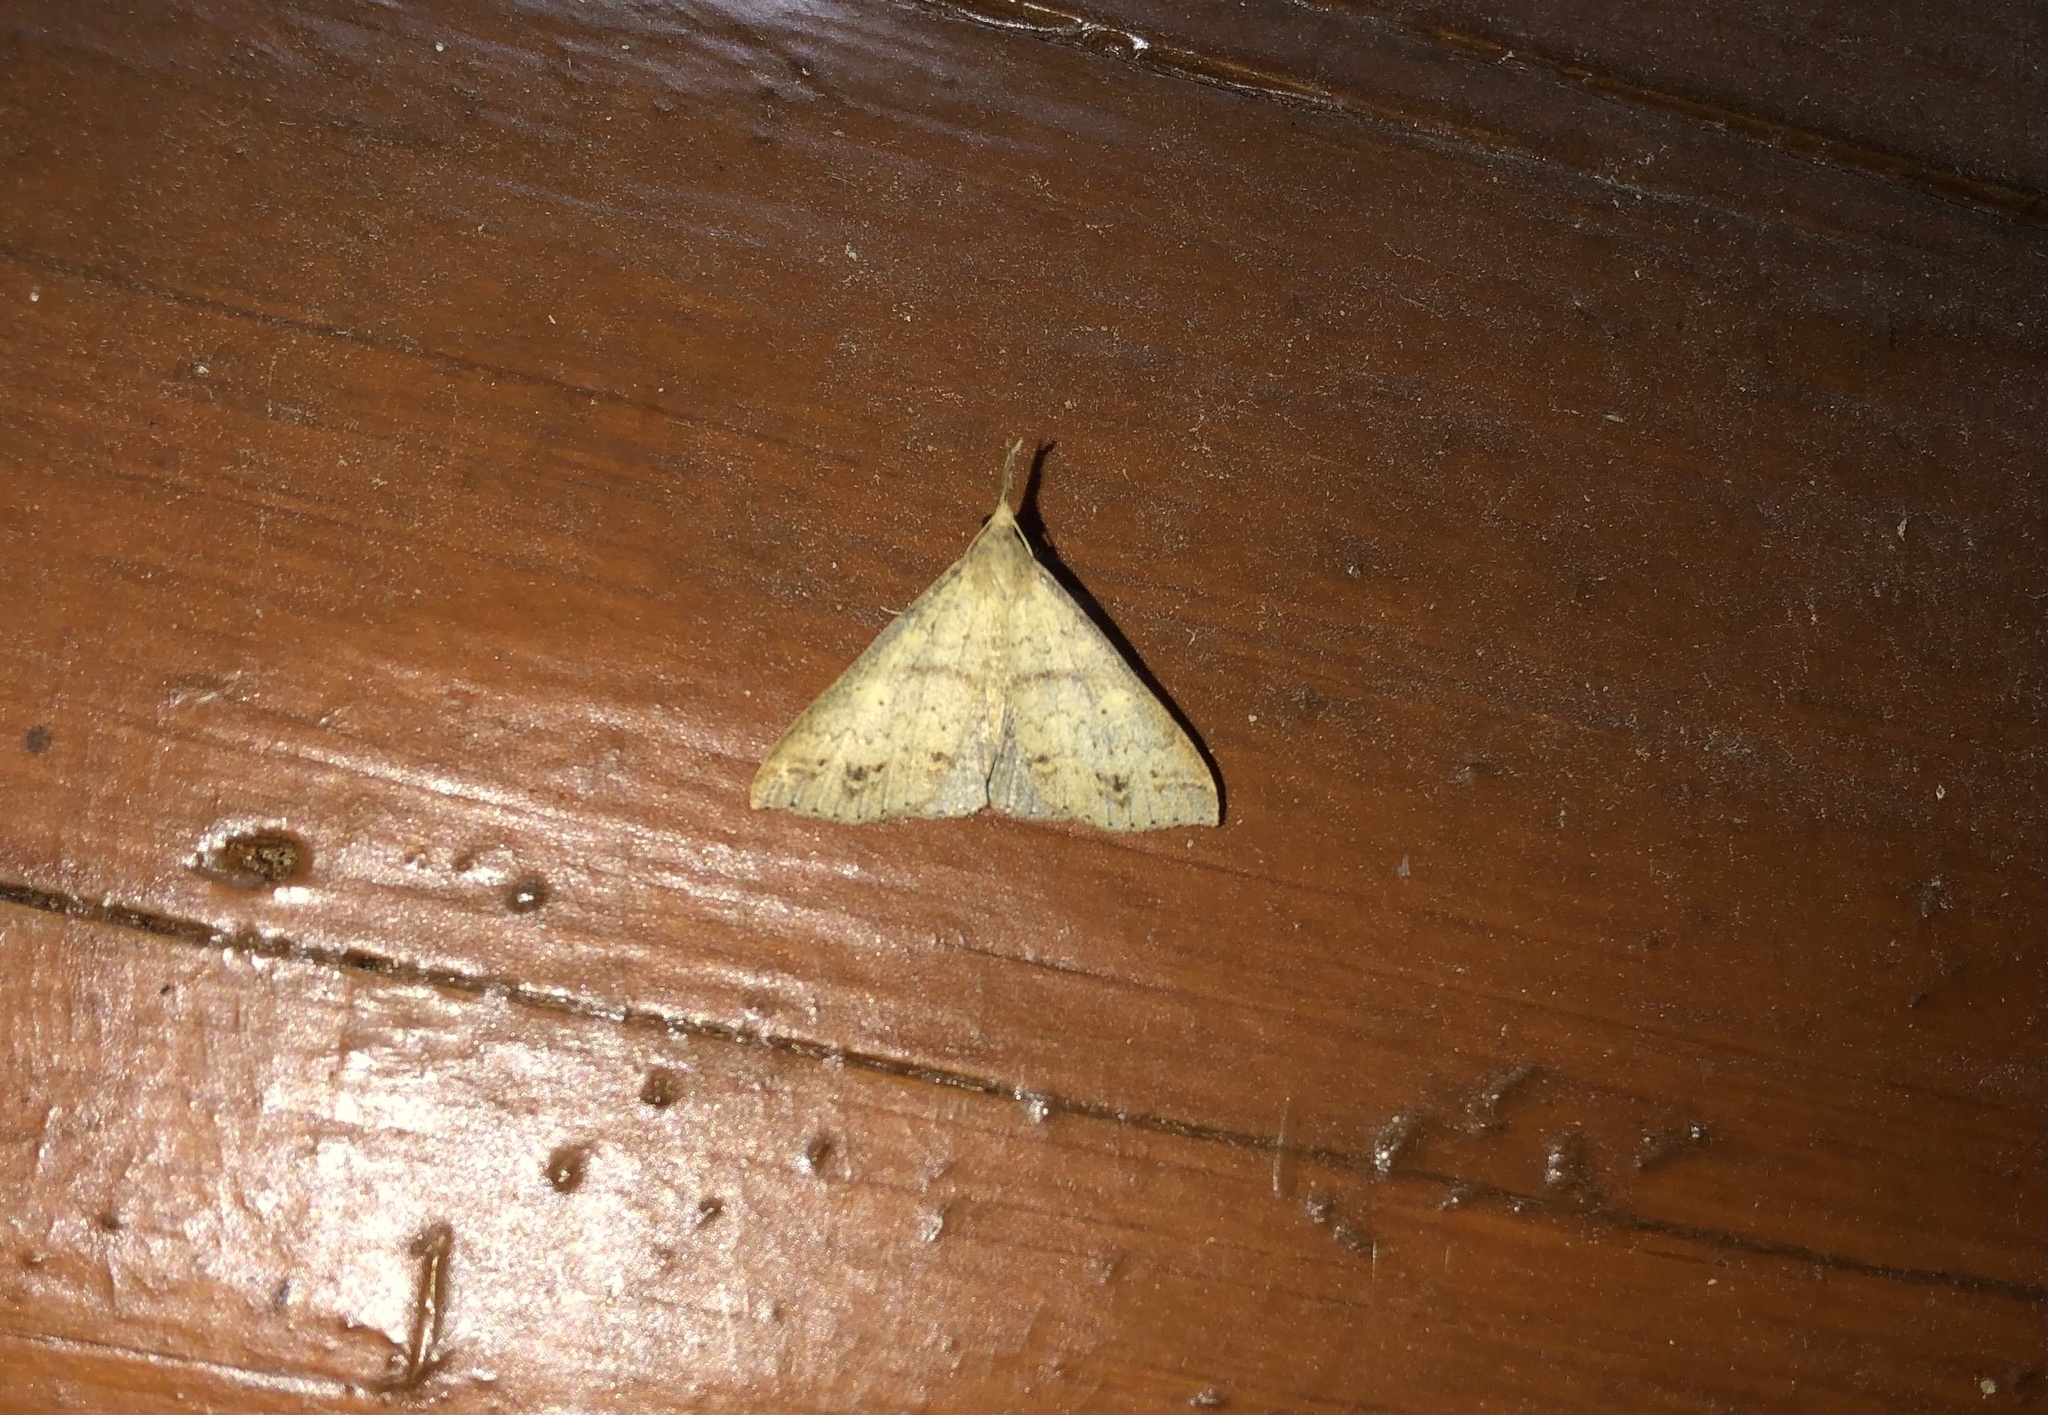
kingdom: Animalia
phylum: Arthropoda
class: Insecta
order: Lepidoptera
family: Erebidae
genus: Renia
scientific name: Renia discoloralis
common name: Discolored renia moth
